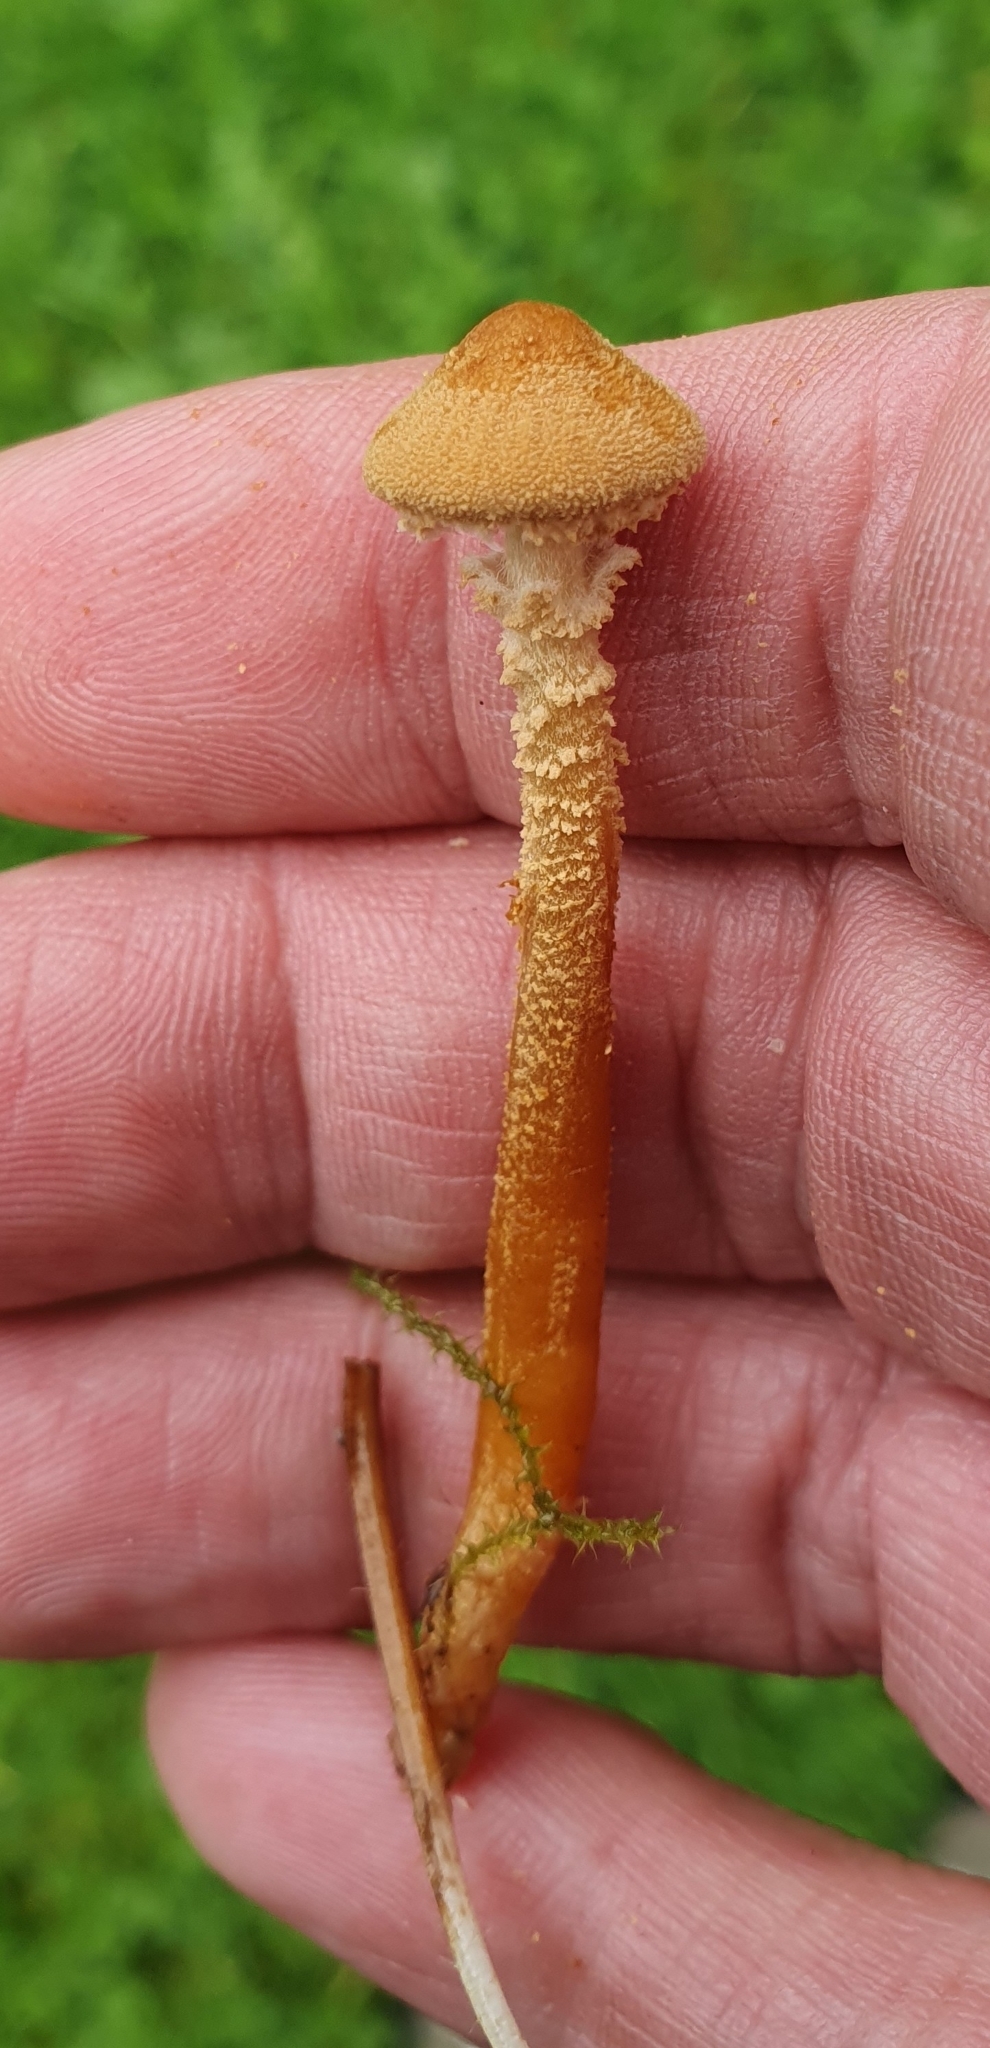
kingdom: Fungi
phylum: Basidiomycota
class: Agaricomycetes
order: Agaricales
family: Tricholomataceae
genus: Cystoderma
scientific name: Cystoderma amianthinum
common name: Earthy powdercap
